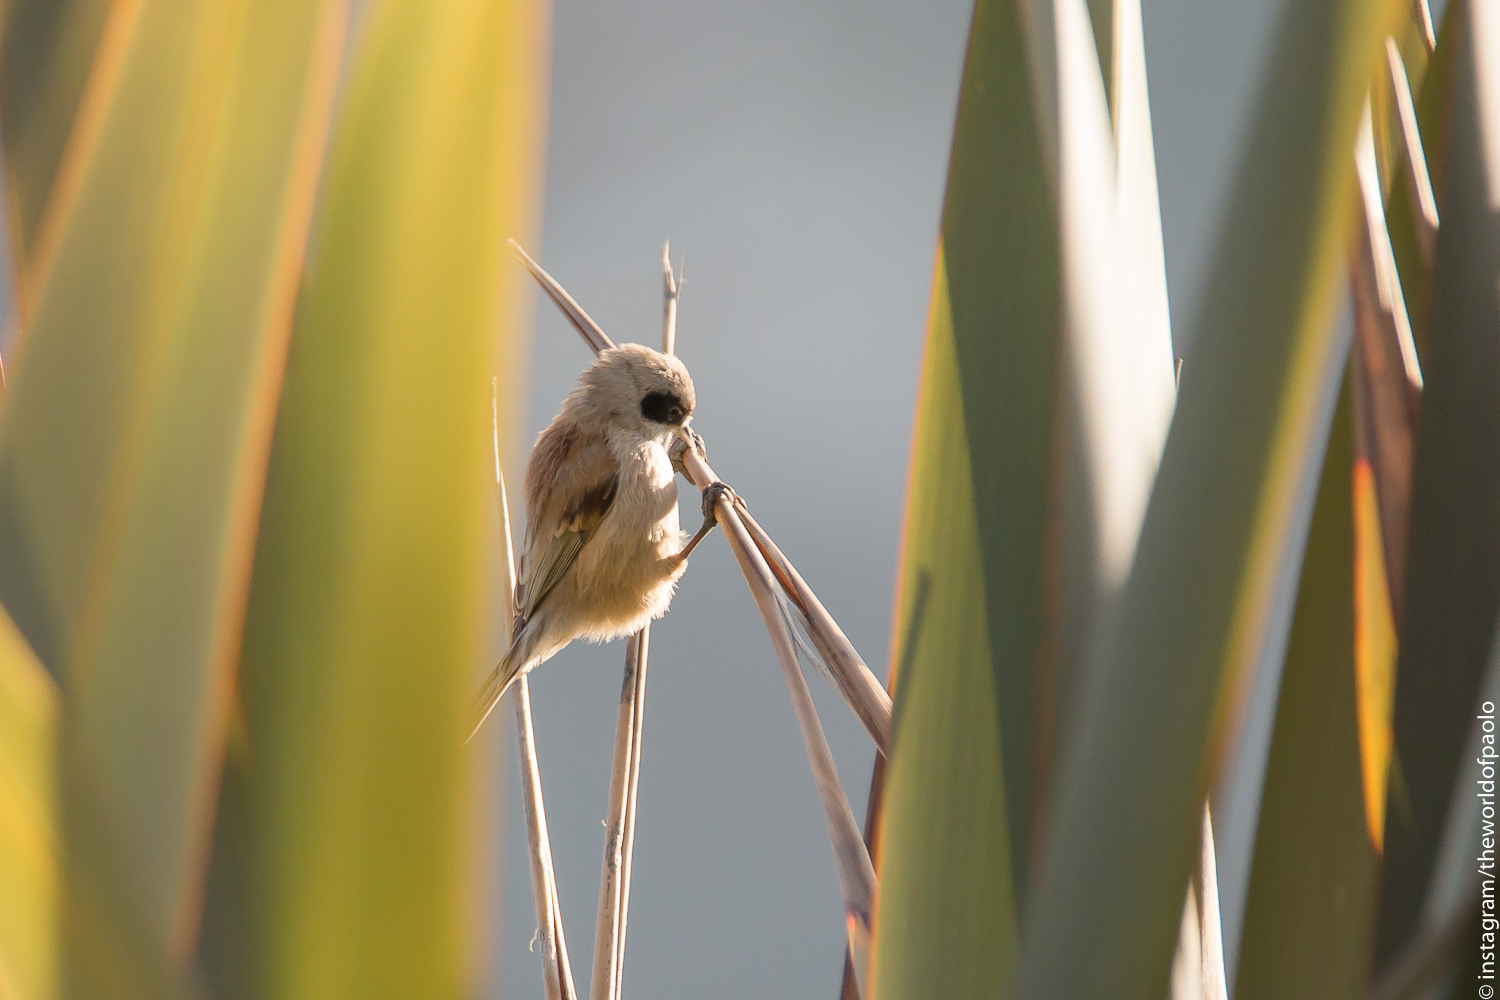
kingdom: Animalia
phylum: Chordata
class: Aves
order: Passeriformes
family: Remizidae
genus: Remiz
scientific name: Remiz pendulinus
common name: Eurasian penduline tit
